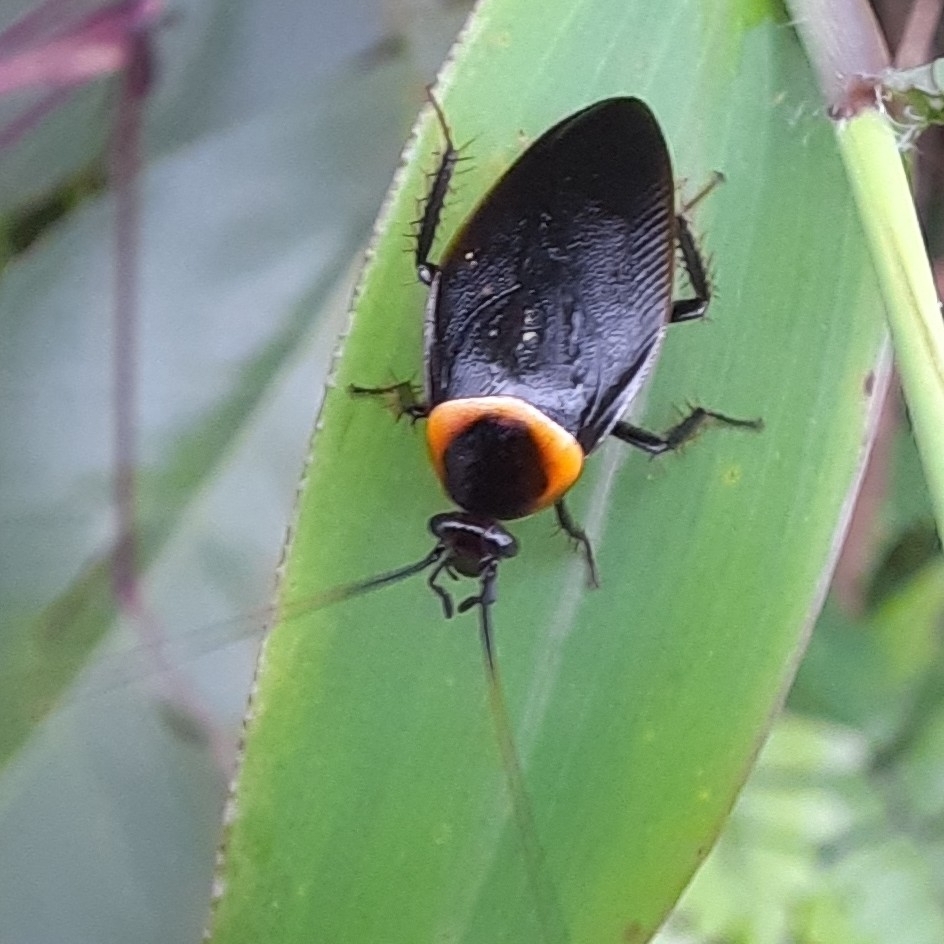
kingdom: Animalia
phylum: Arthropoda
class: Insecta
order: Blattodea
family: Ectobiidae
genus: Hemithyrsocera
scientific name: Hemithyrsocera palliata
